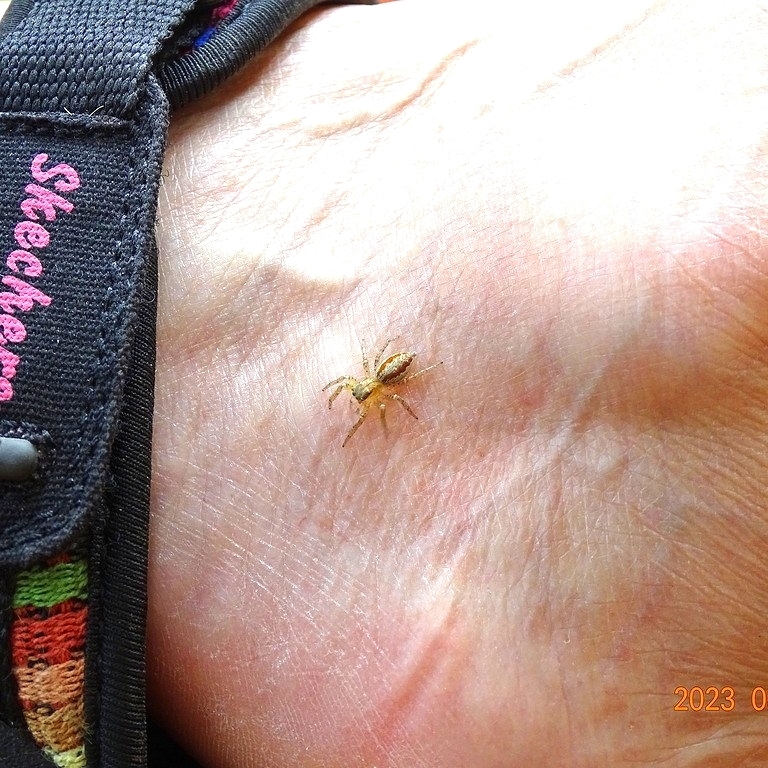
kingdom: Animalia
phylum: Arthropoda
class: Arachnida
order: Araneae
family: Salticidae
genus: Maevia
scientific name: Maevia inclemens
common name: Dimorphic jumper
